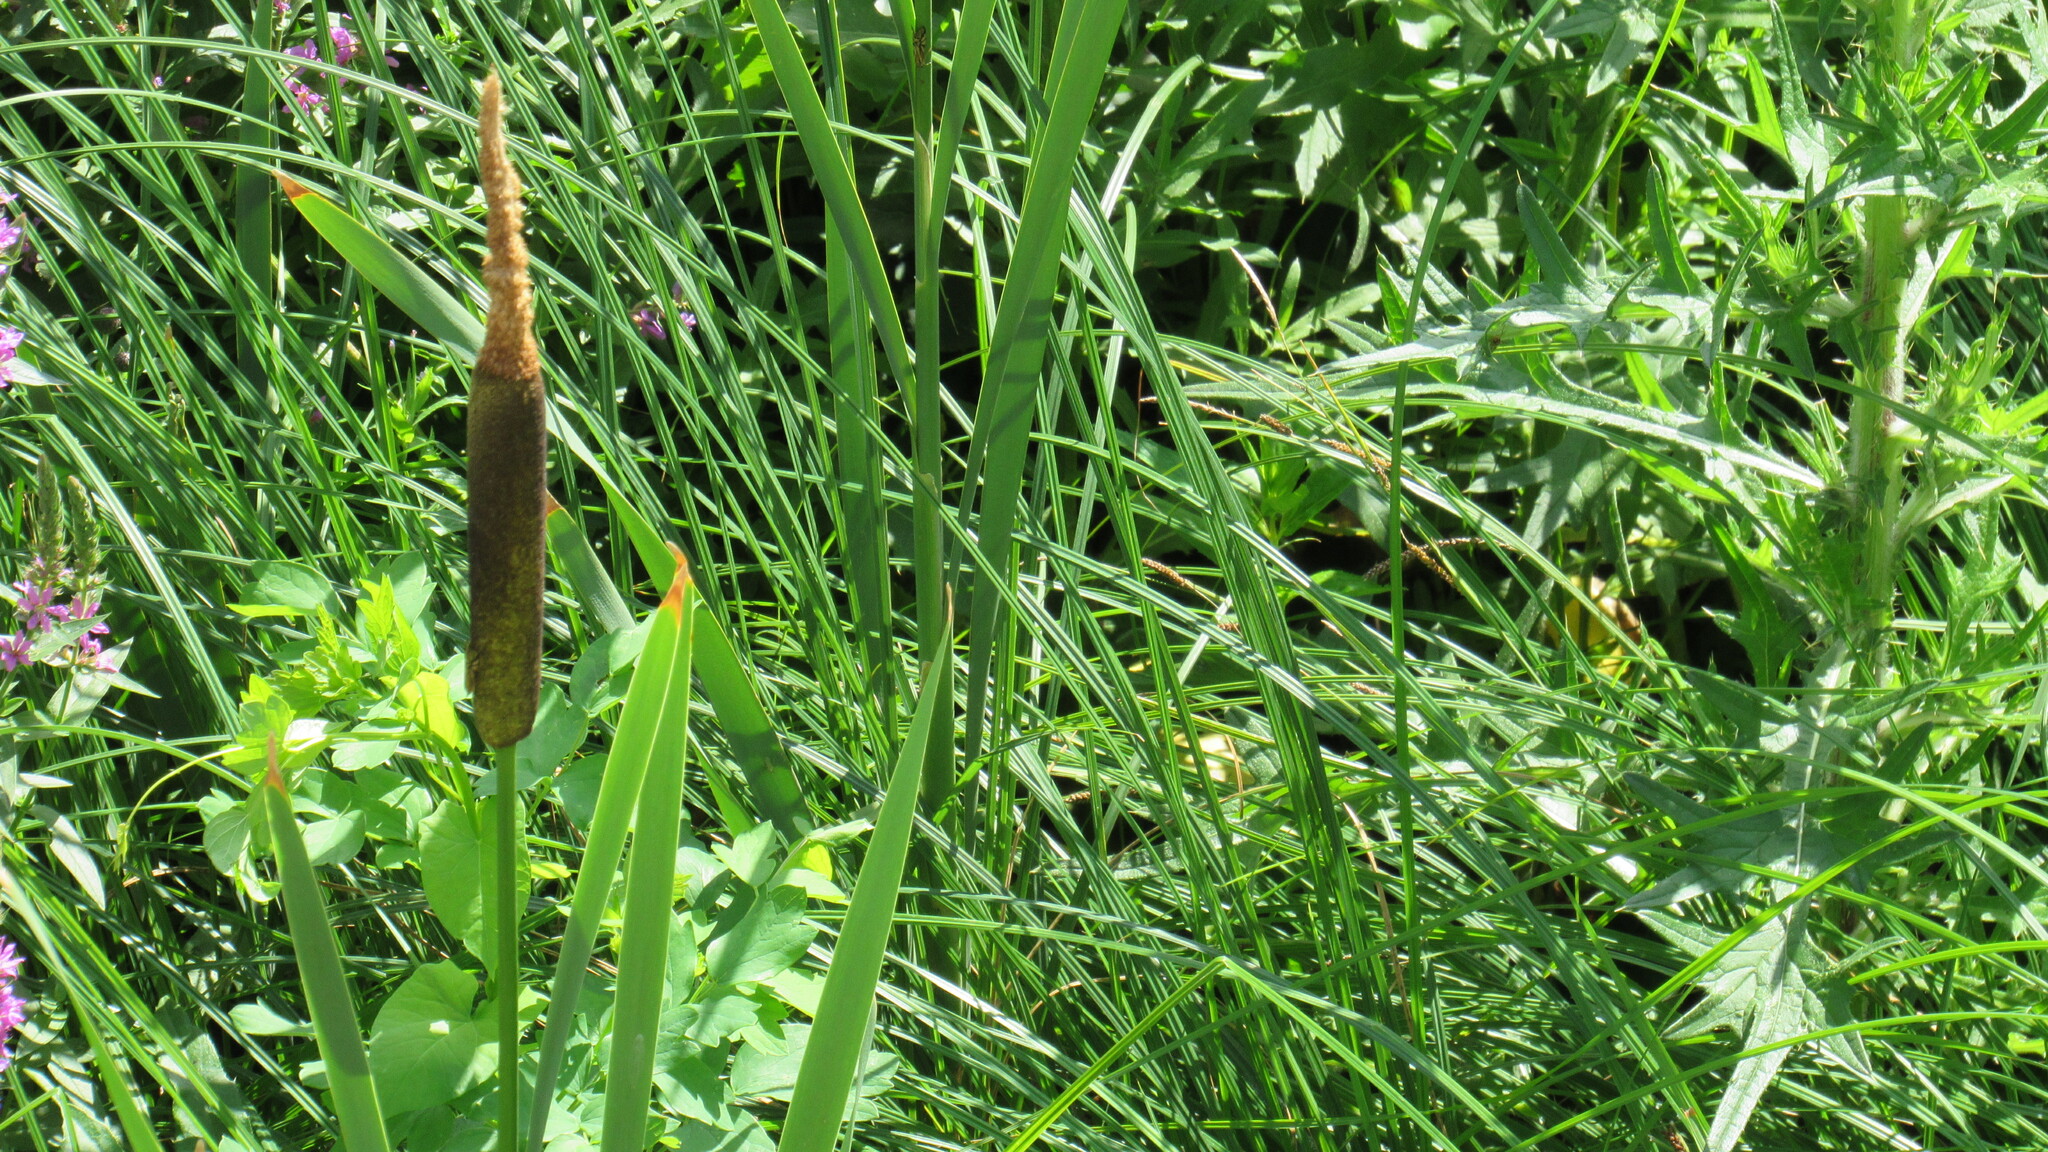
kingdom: Plantae
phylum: Tracheophyta
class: Liliopsida
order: Poales
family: Typhaceae
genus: Typha
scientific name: Typha latifolia
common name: Broadleaf cattail
